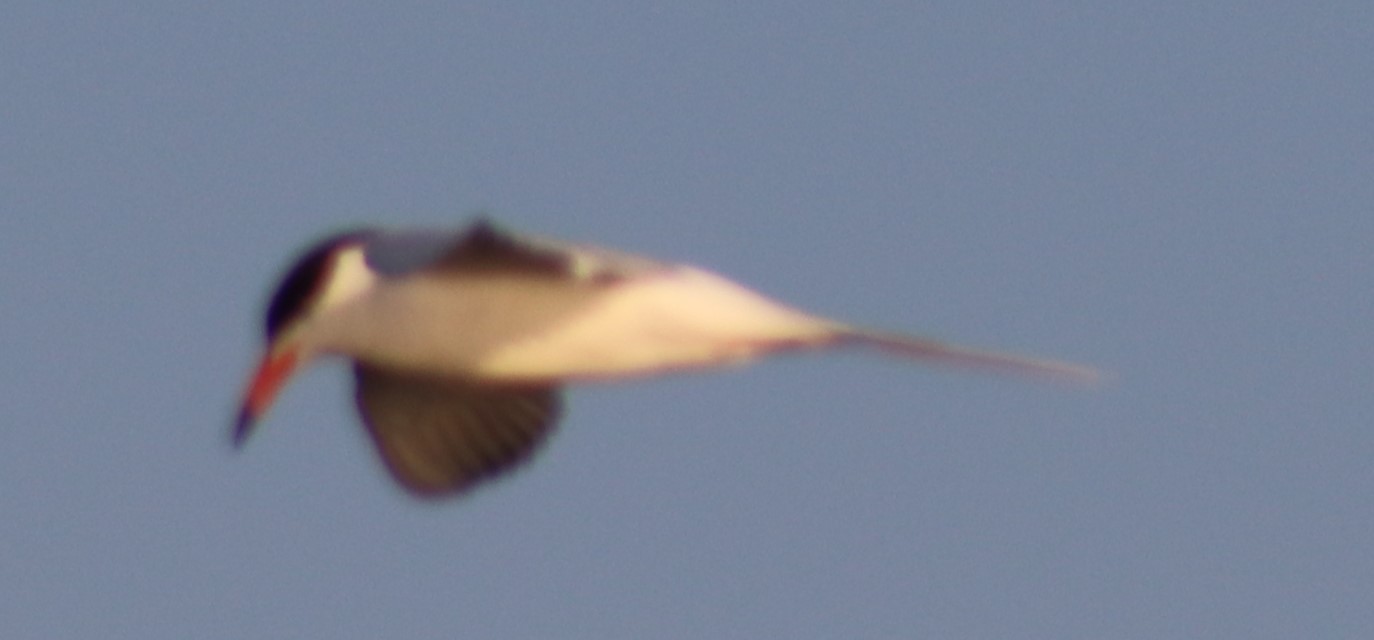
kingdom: Animalia
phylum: Chordata
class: Aves
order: Charadriiformes
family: Laridae
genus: Sterna
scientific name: Sterna forsteri
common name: Forster's tern
